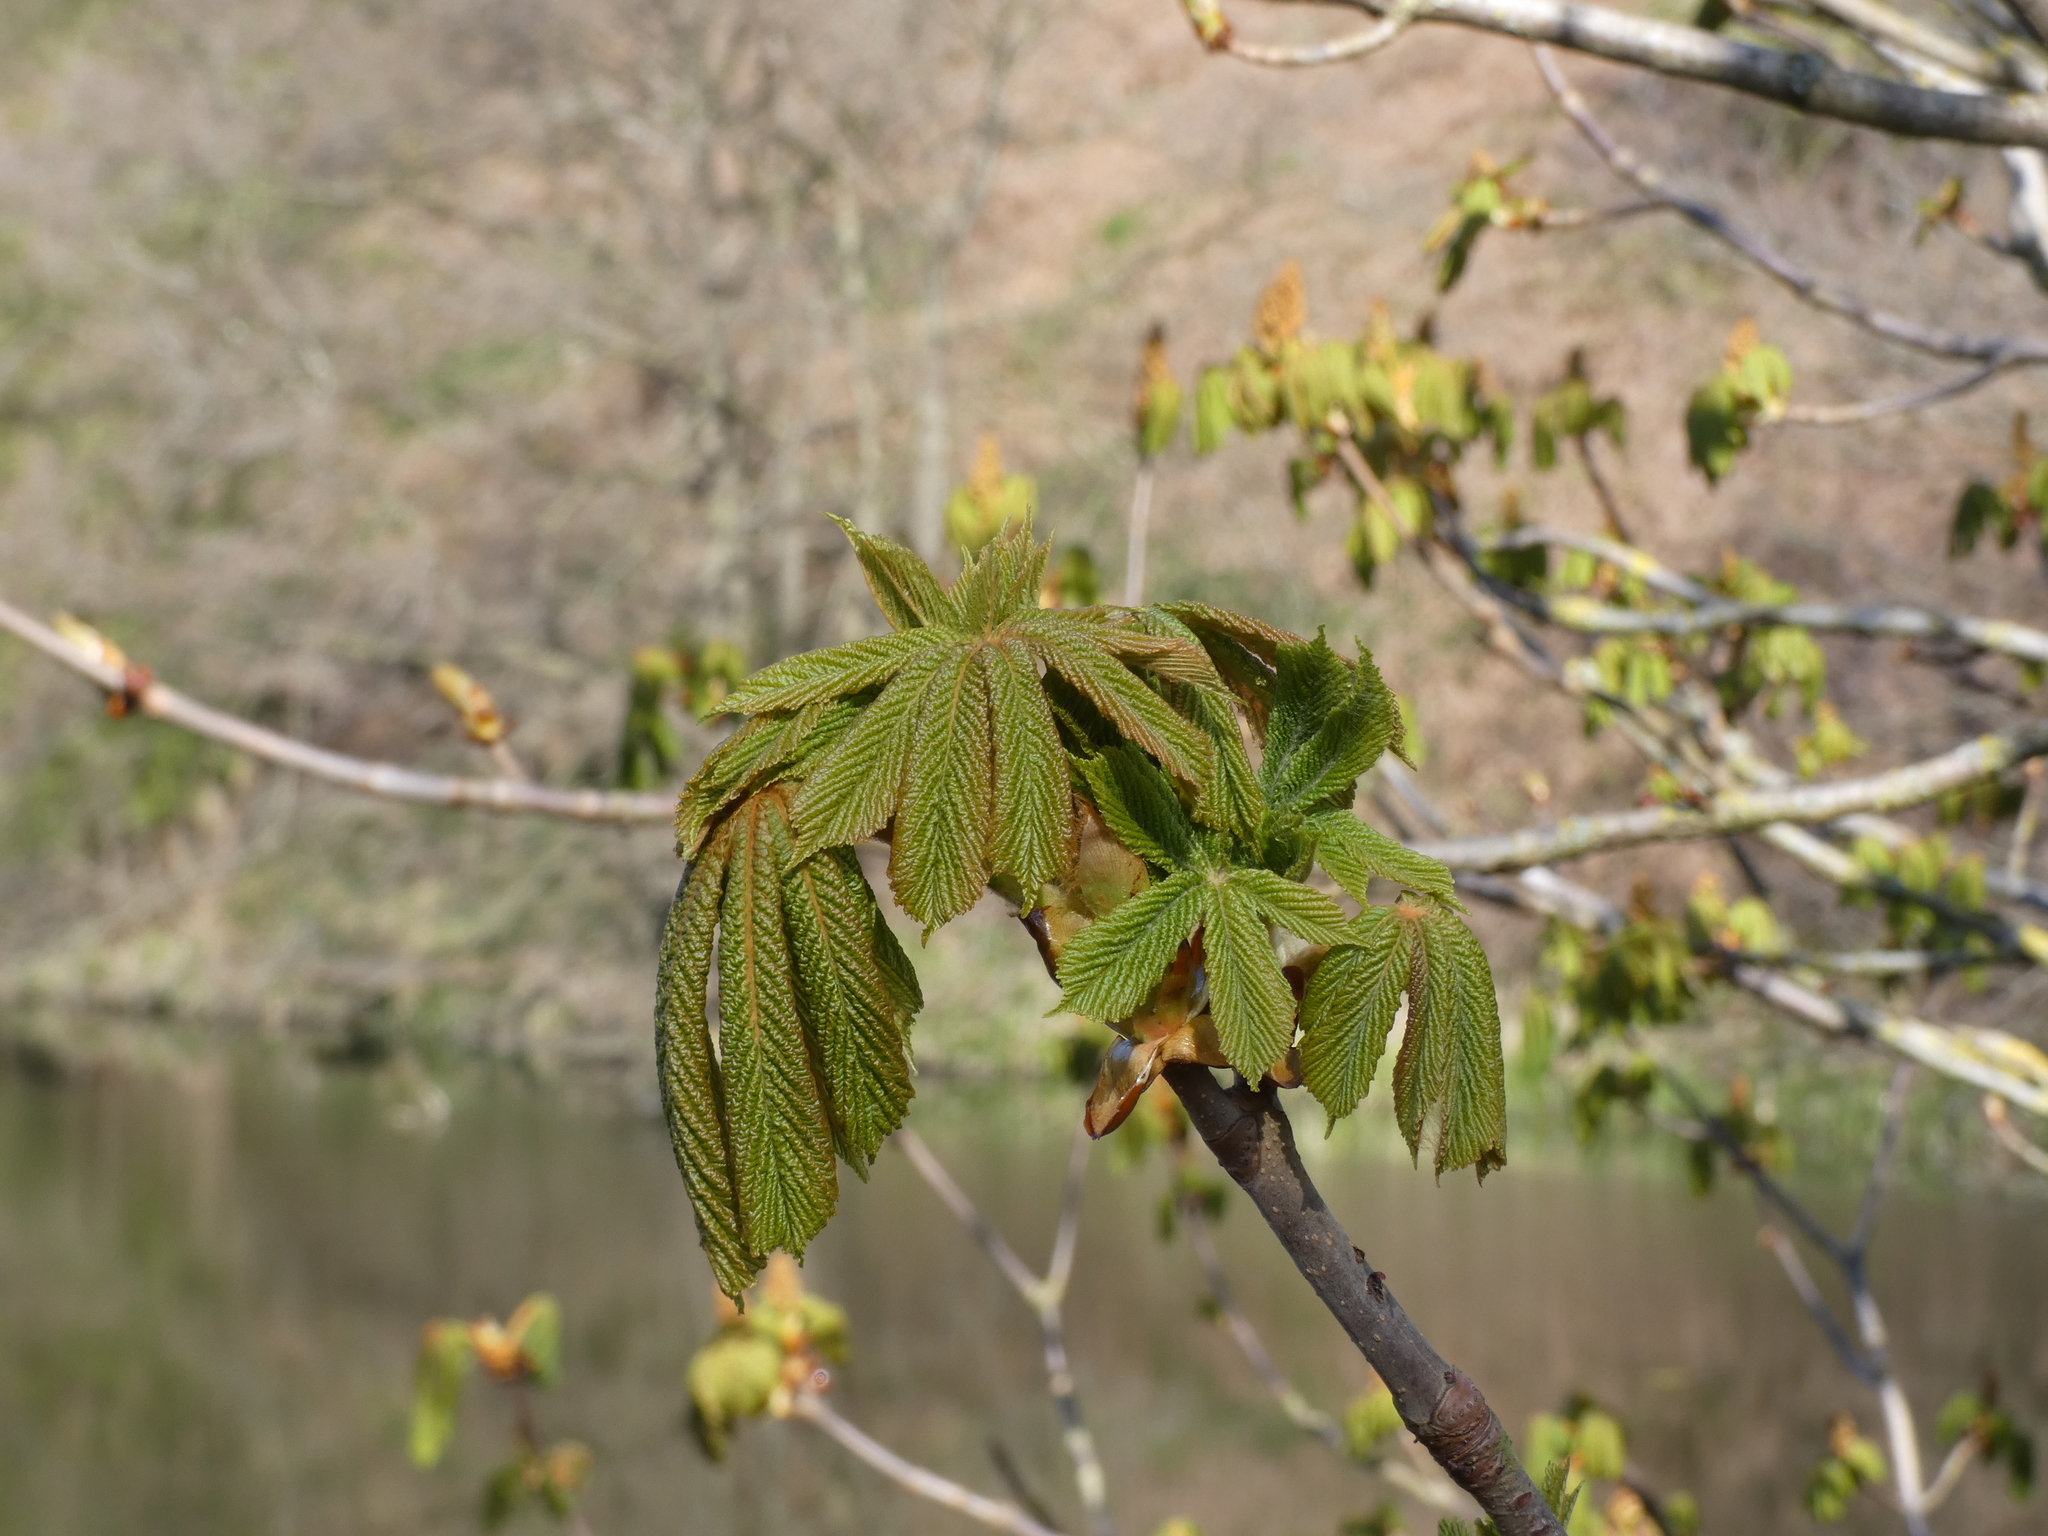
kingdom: Plantae
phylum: Tracheophyta
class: Magnoliopsida
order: Sapindales
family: Sapindaceae
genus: Aesculus
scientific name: Aesculus hippocastanum
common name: Horse-chestnut
